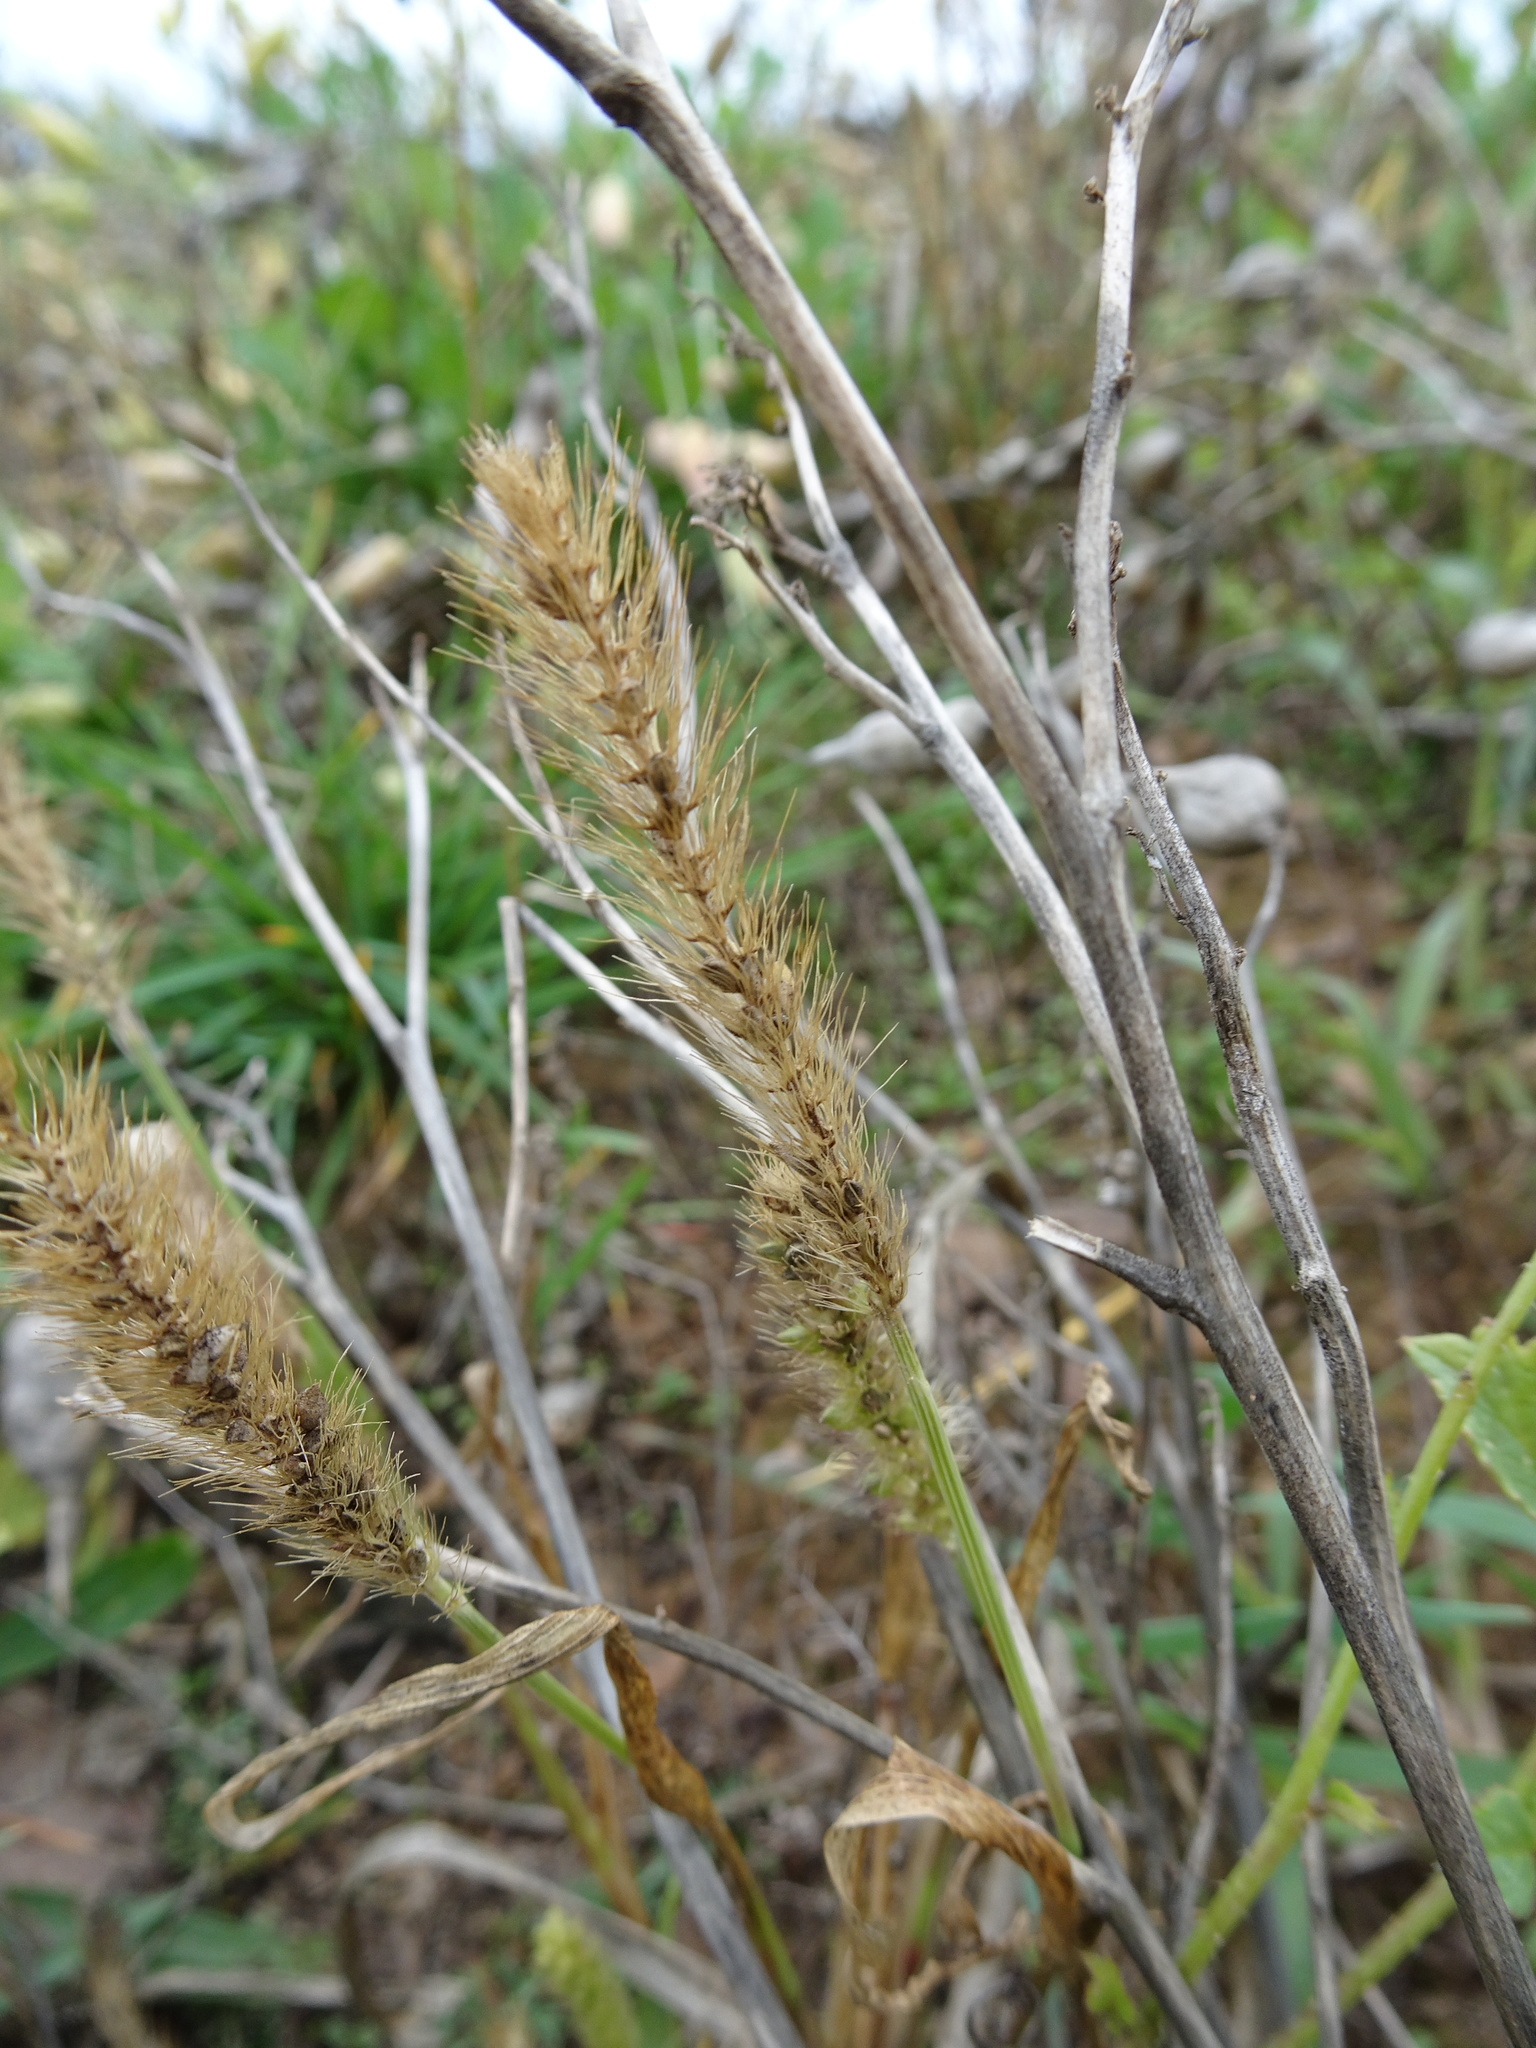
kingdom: Plantae
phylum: Tracheophyta
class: Liliopsida
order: Poales
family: Poaceae
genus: Echinochloa
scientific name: Echinochloa crus-galli
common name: Cockspur
